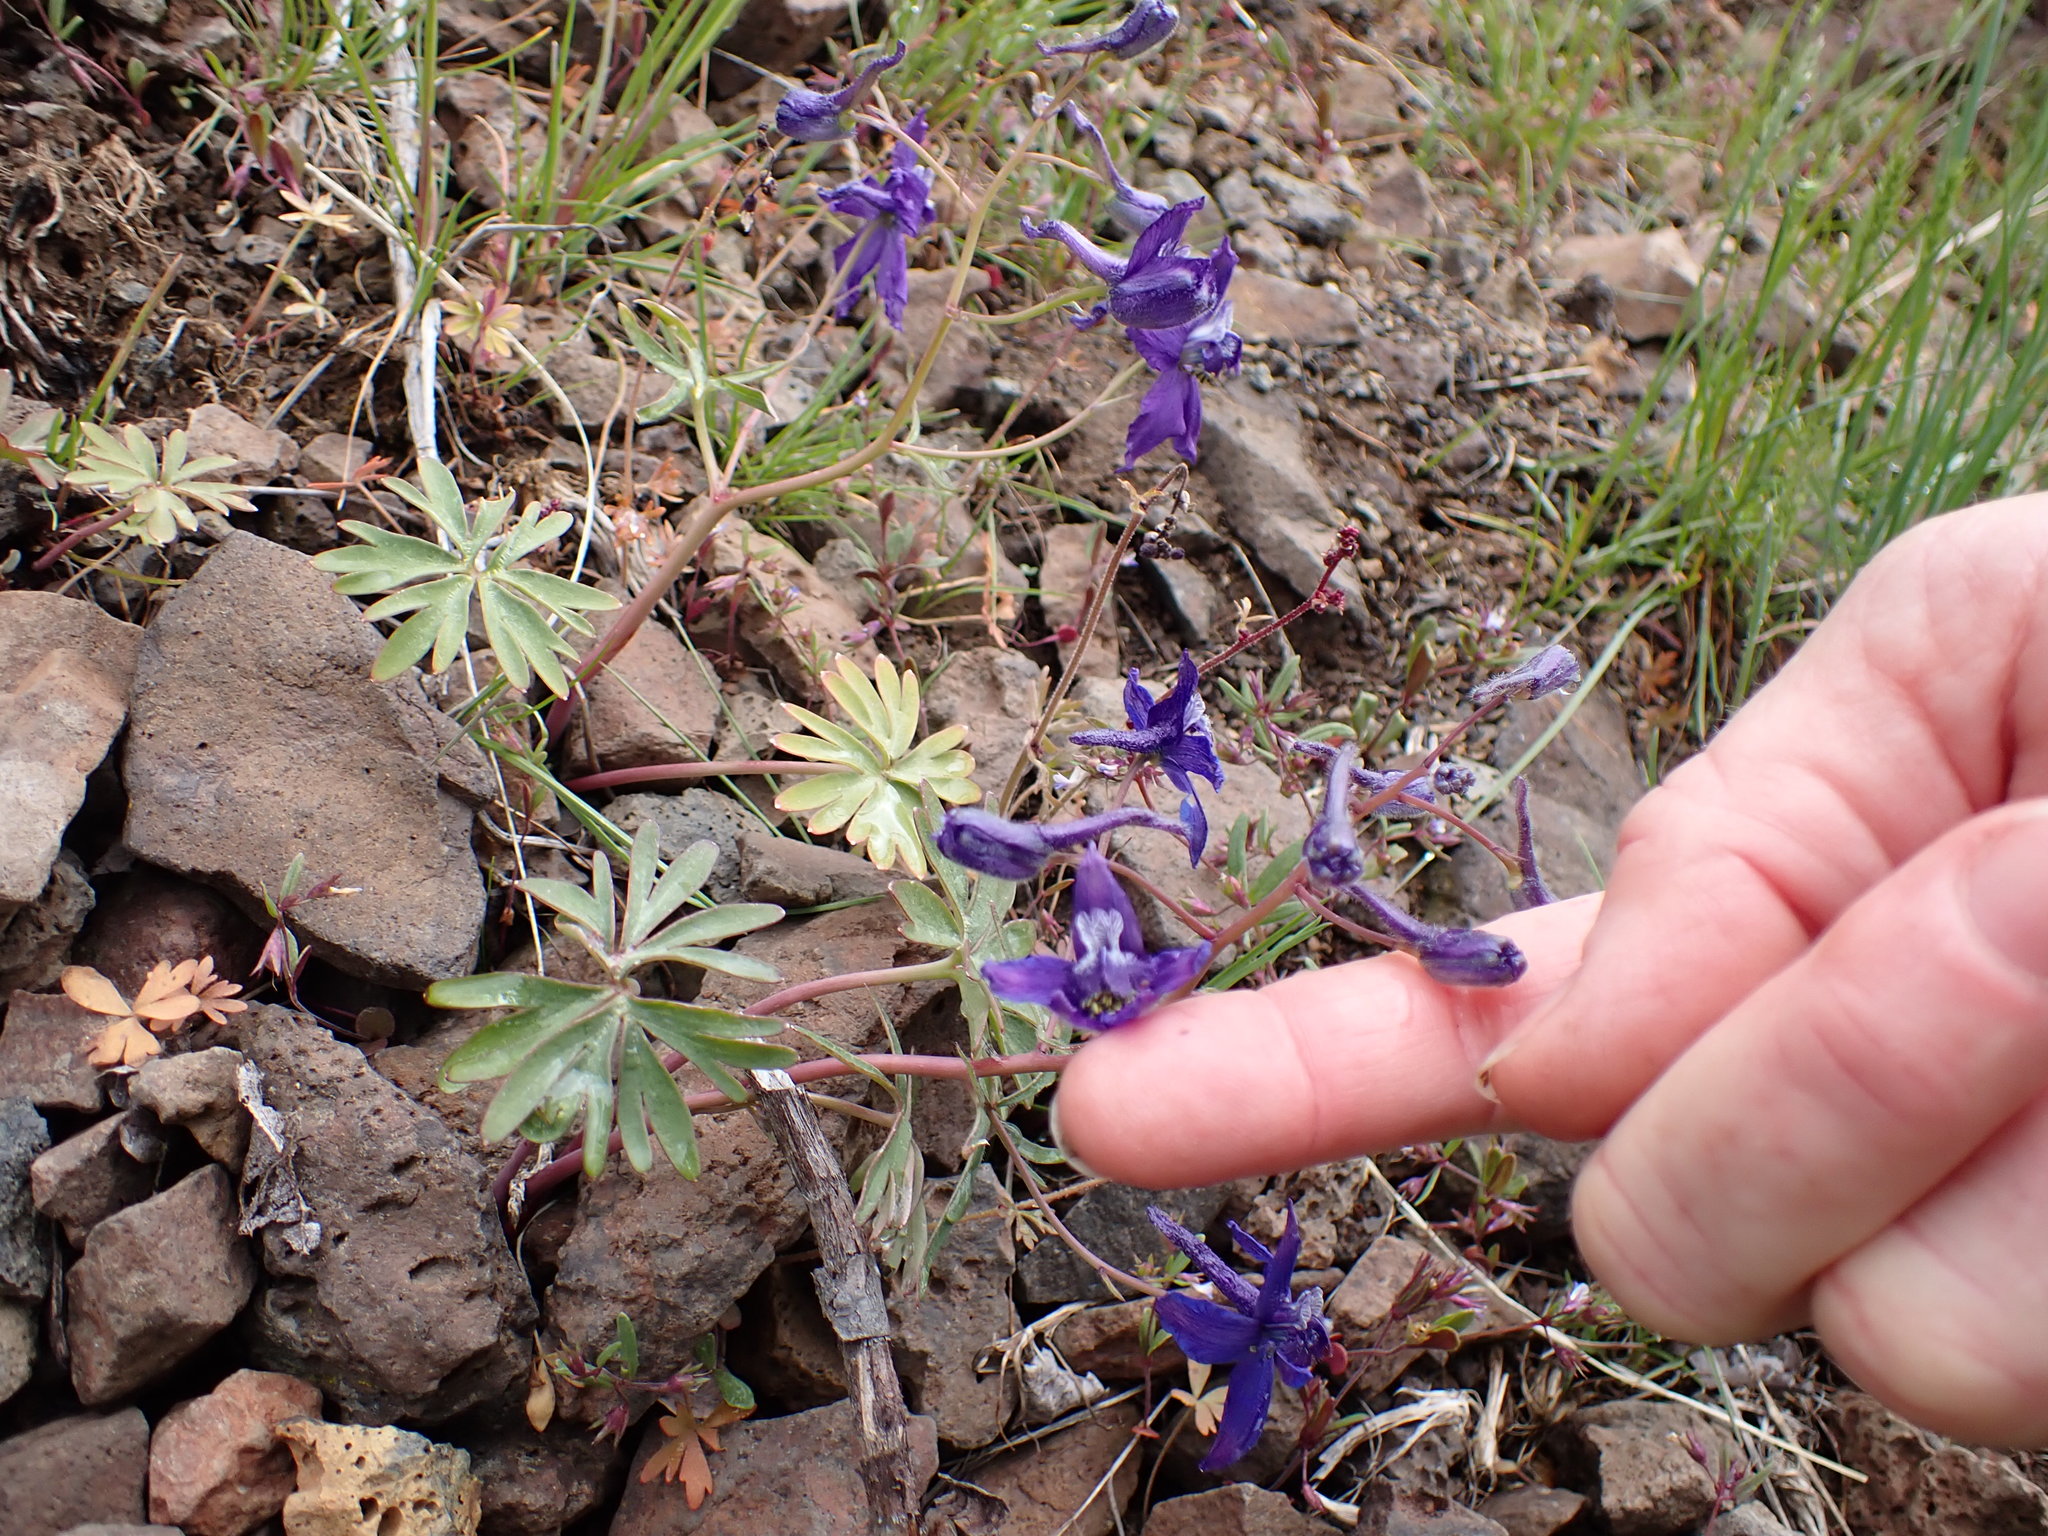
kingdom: Plantae
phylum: Tracheophyta
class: Magnoliopsida
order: Ranunculales
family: Ranunculaceae
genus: Delphinium
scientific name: Delphinium nuttallianum
